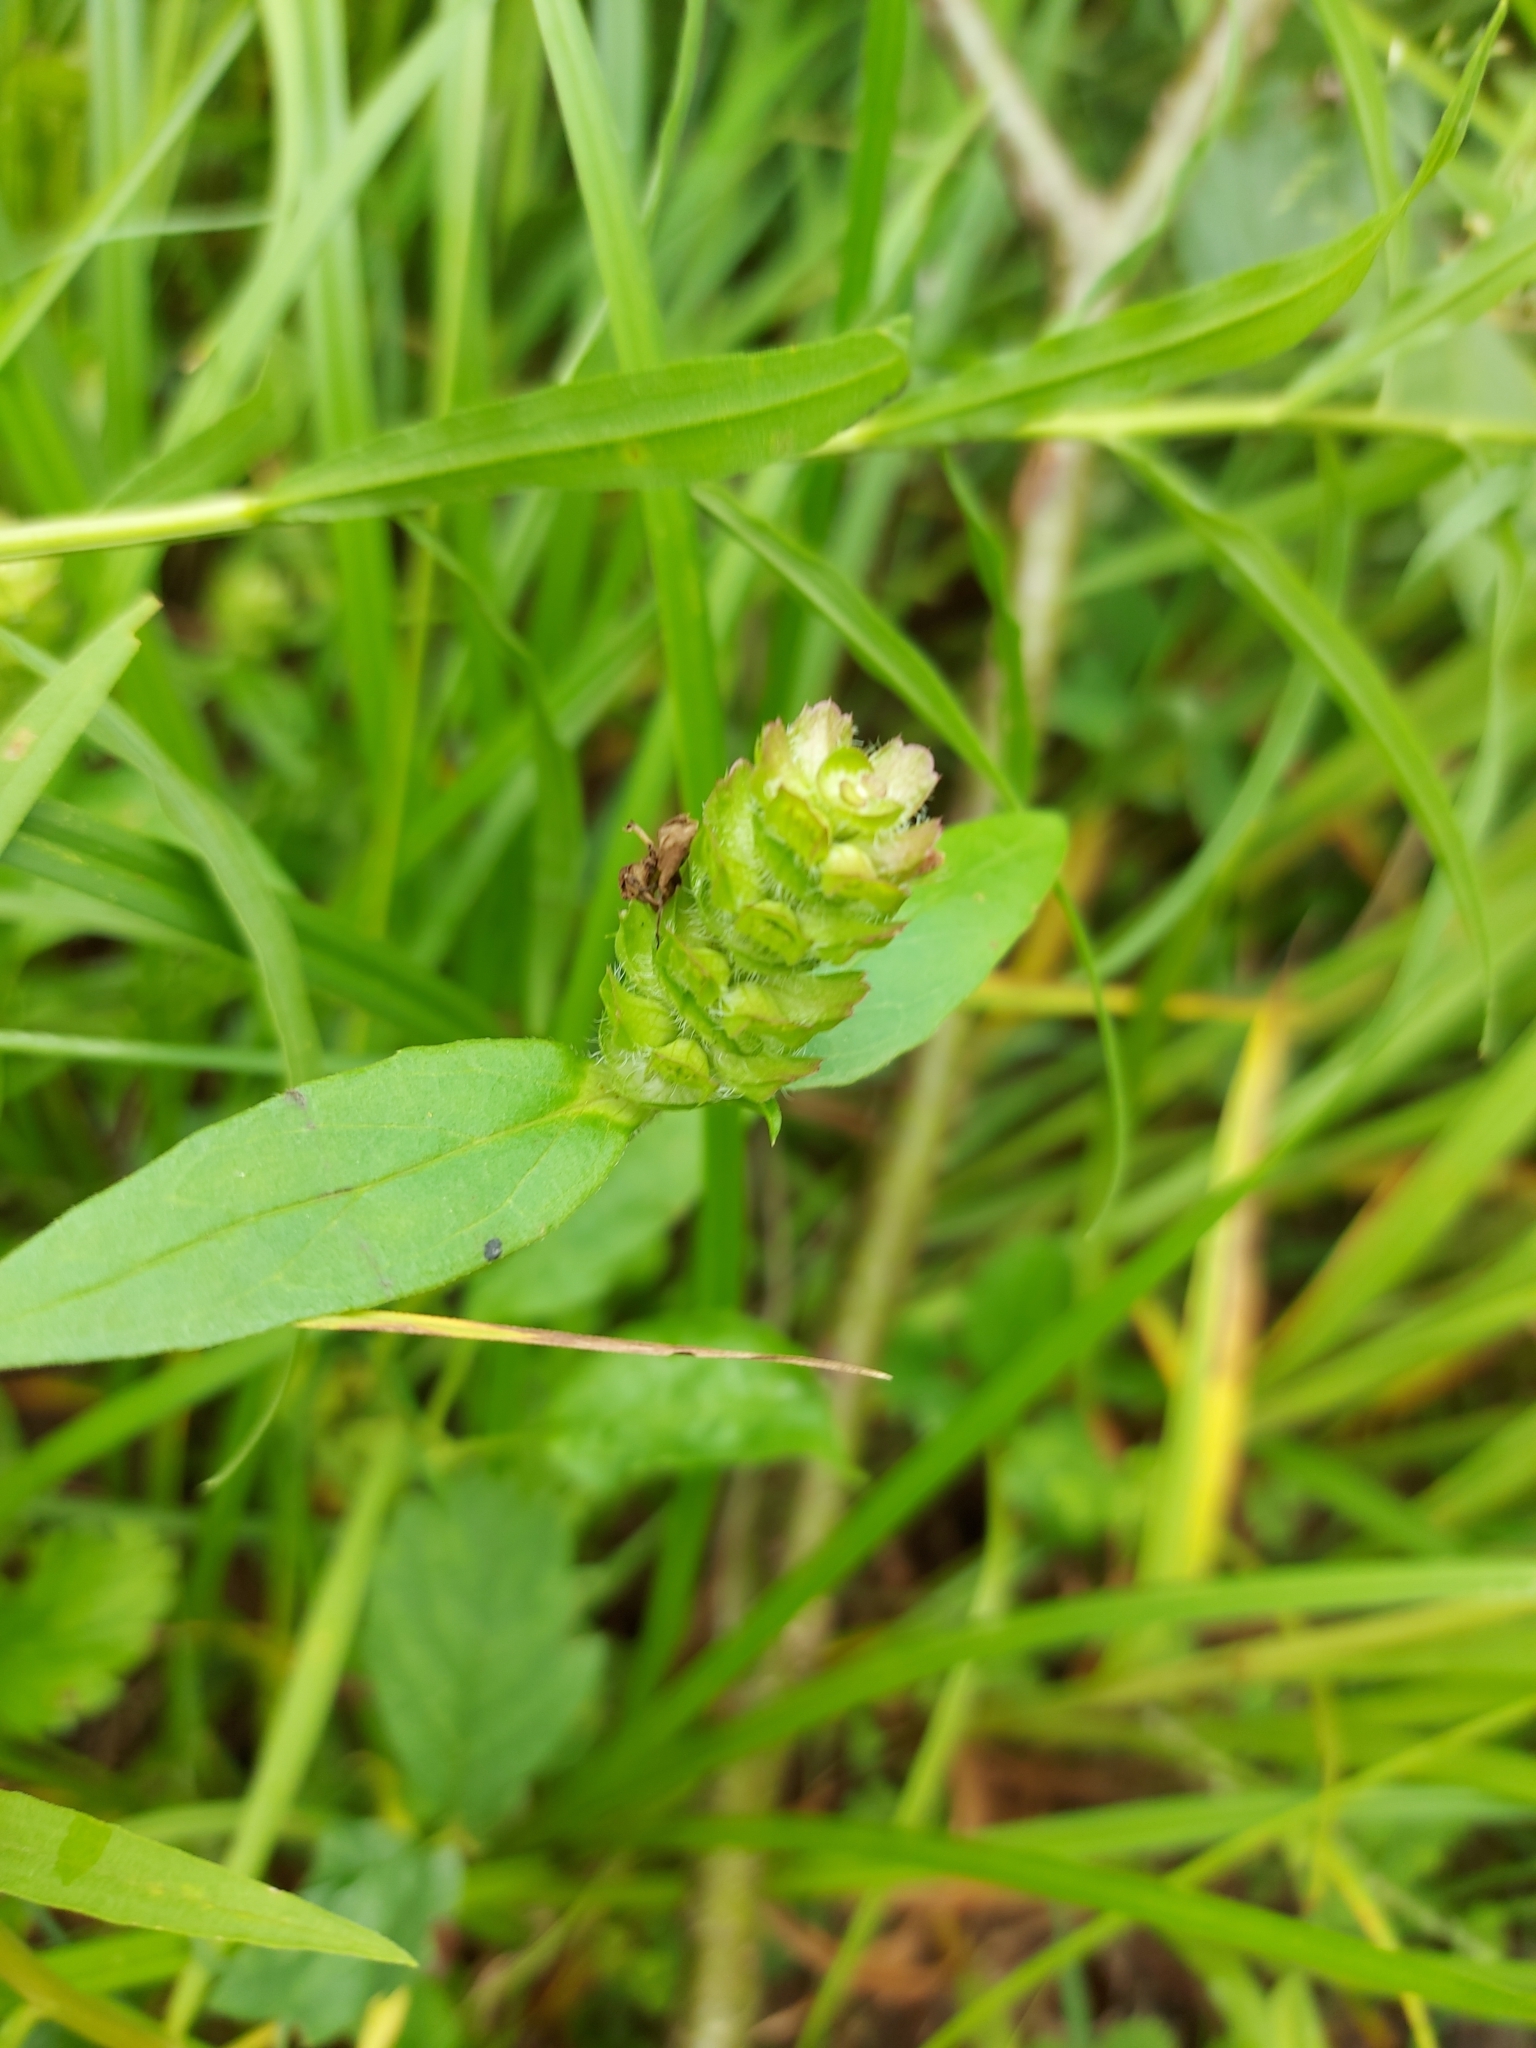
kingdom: Plantae
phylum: Tracheophyta
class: Magnoliopsida
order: Lamiales
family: Lamiaceae
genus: Prunella
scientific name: Prunella vulgaris
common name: Heal-all
